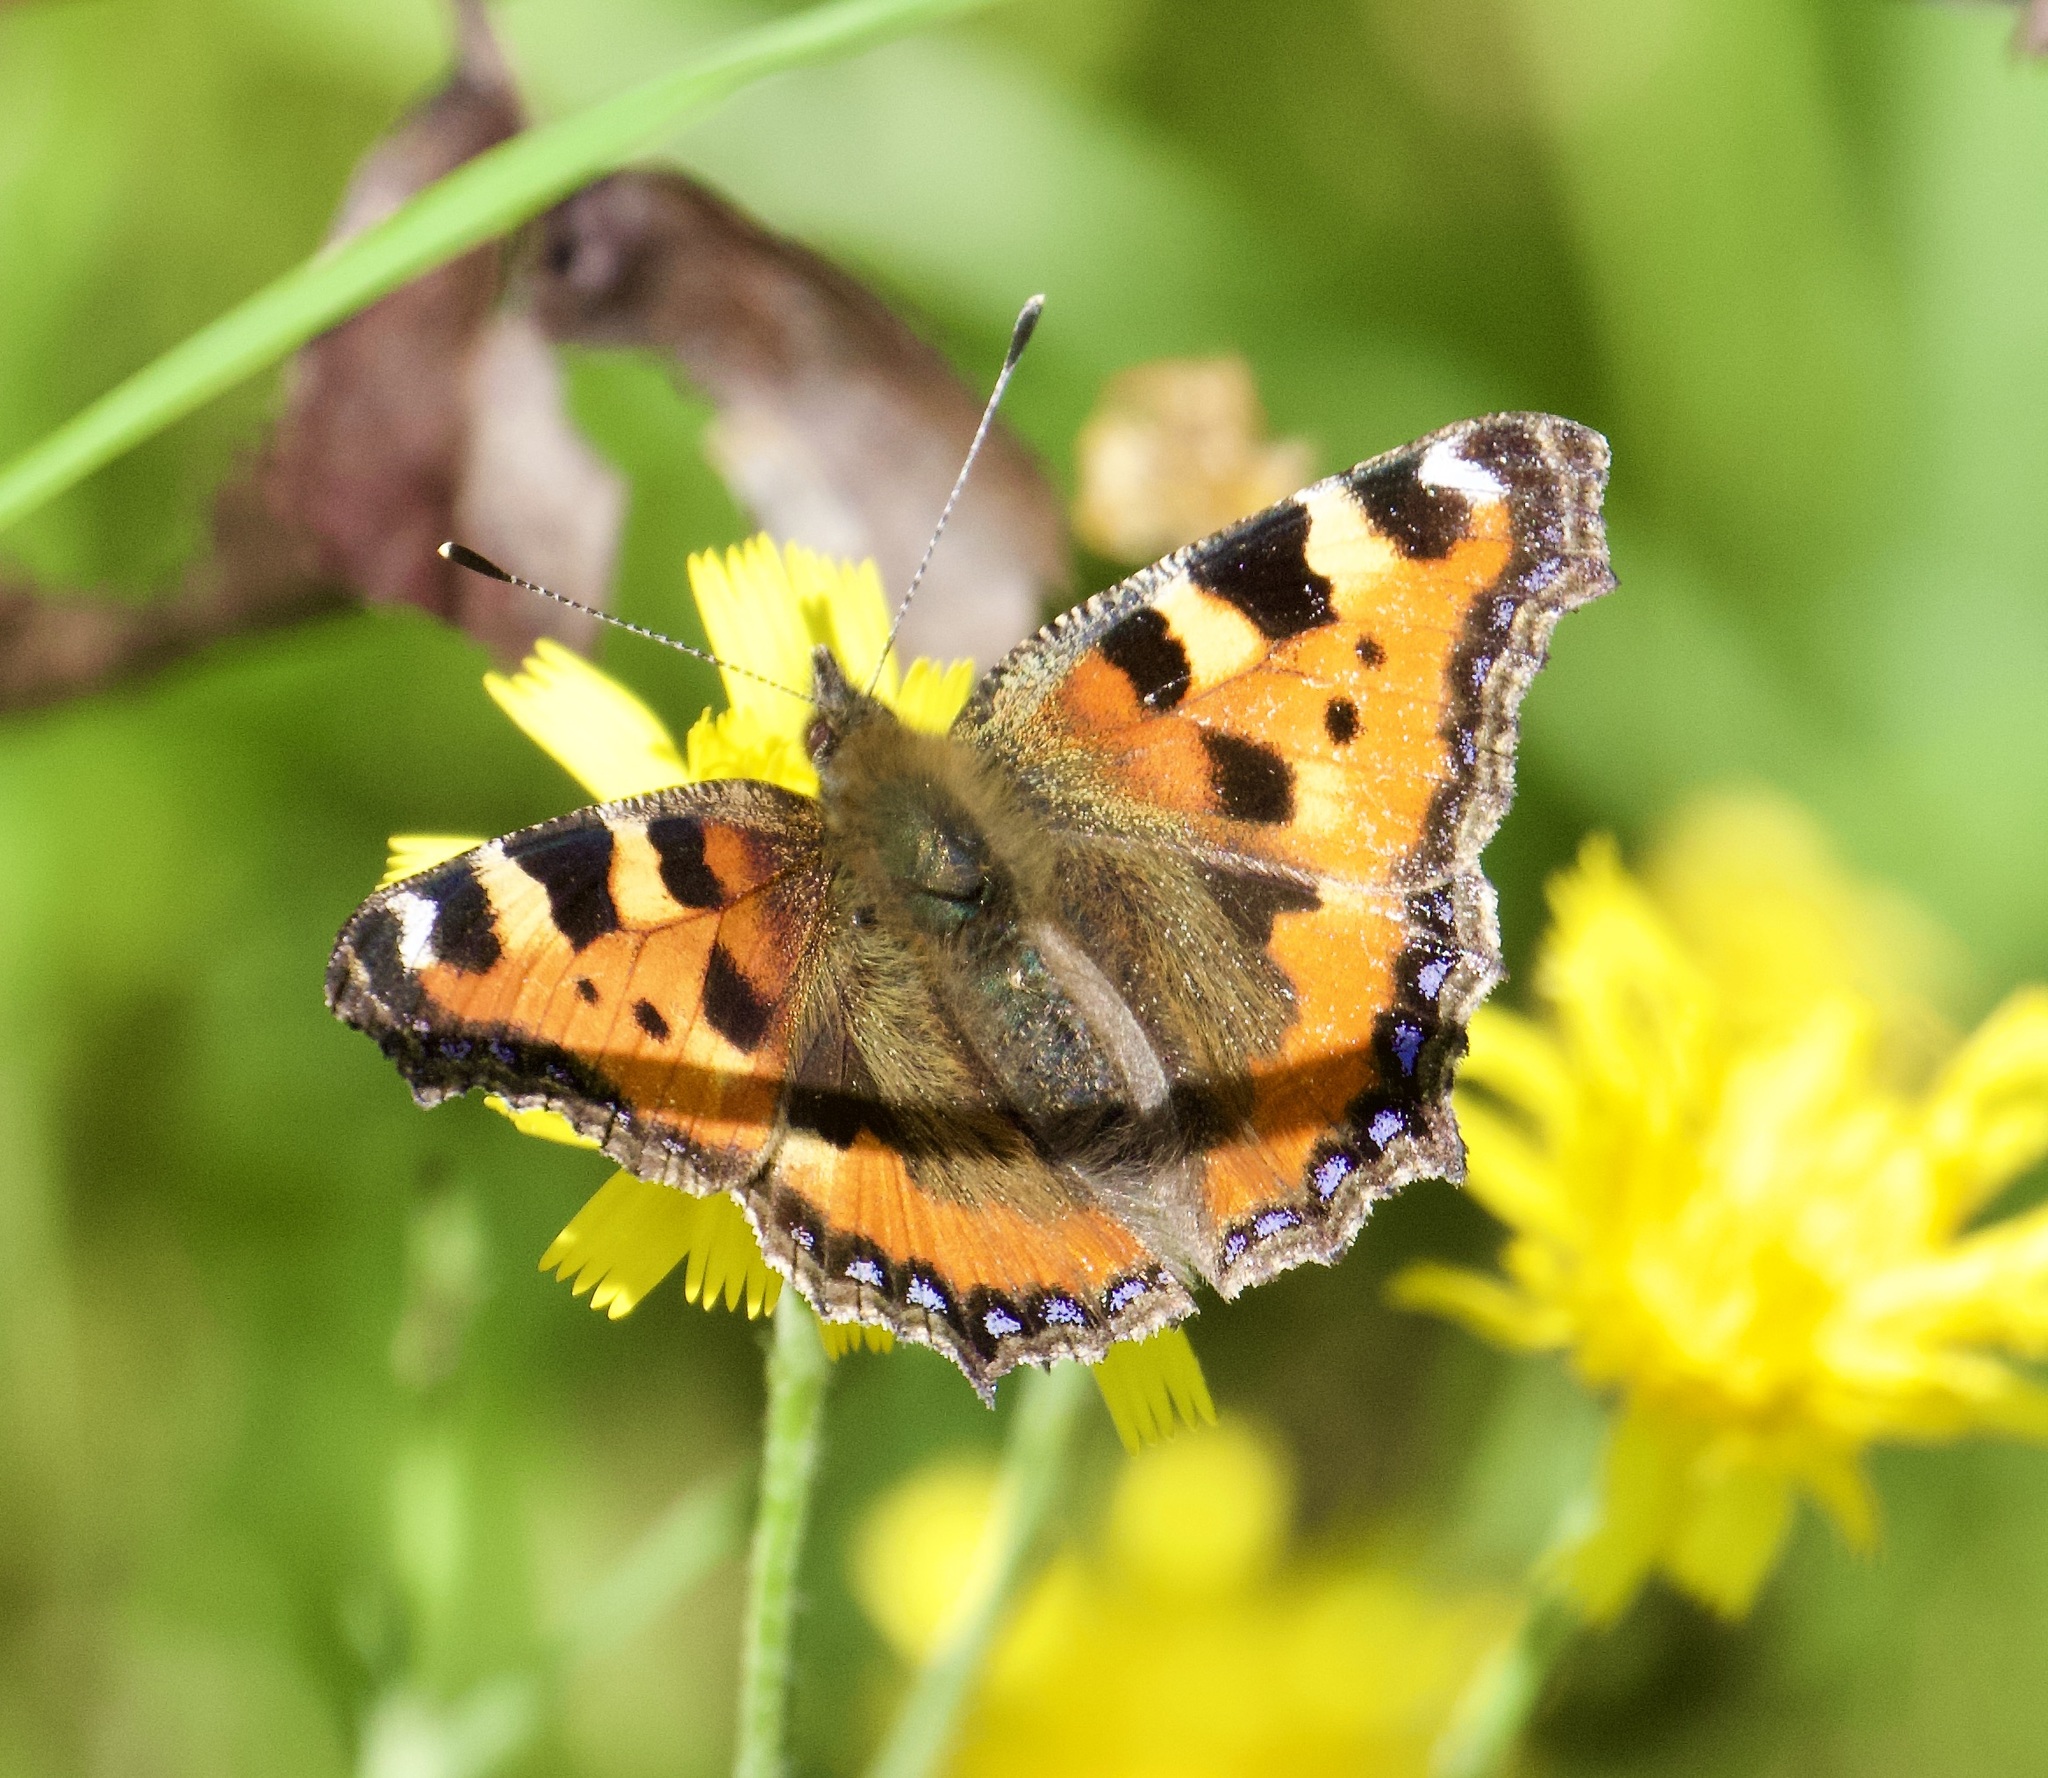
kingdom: Animalia
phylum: Arthropoda
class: Insecta
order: Lepidoptera
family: Nymphalidae
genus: Aglais
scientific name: Aglais urticae
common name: Small tortoiseshell
